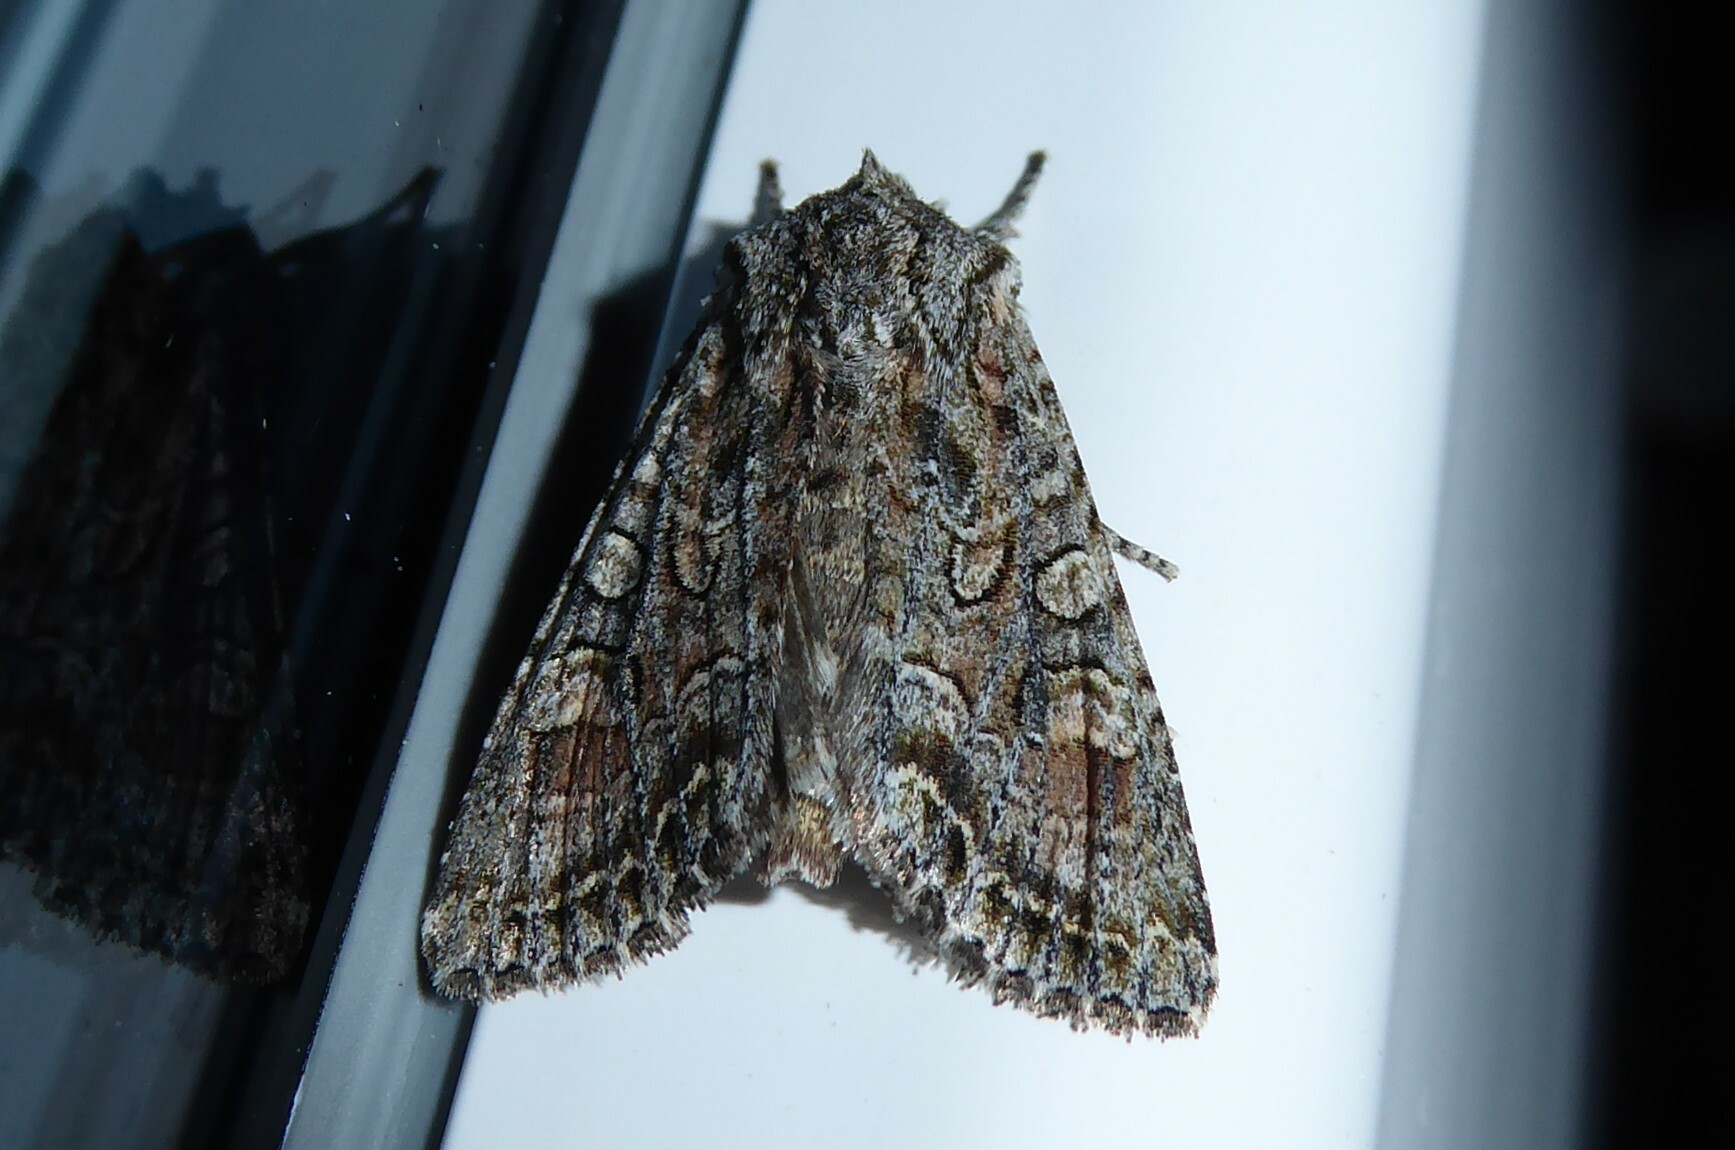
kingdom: Animalia
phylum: Arthropoda
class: Insecta
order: Lepidoptera
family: Noctuidae
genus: Ichneutica
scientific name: Ichneutica mutans
